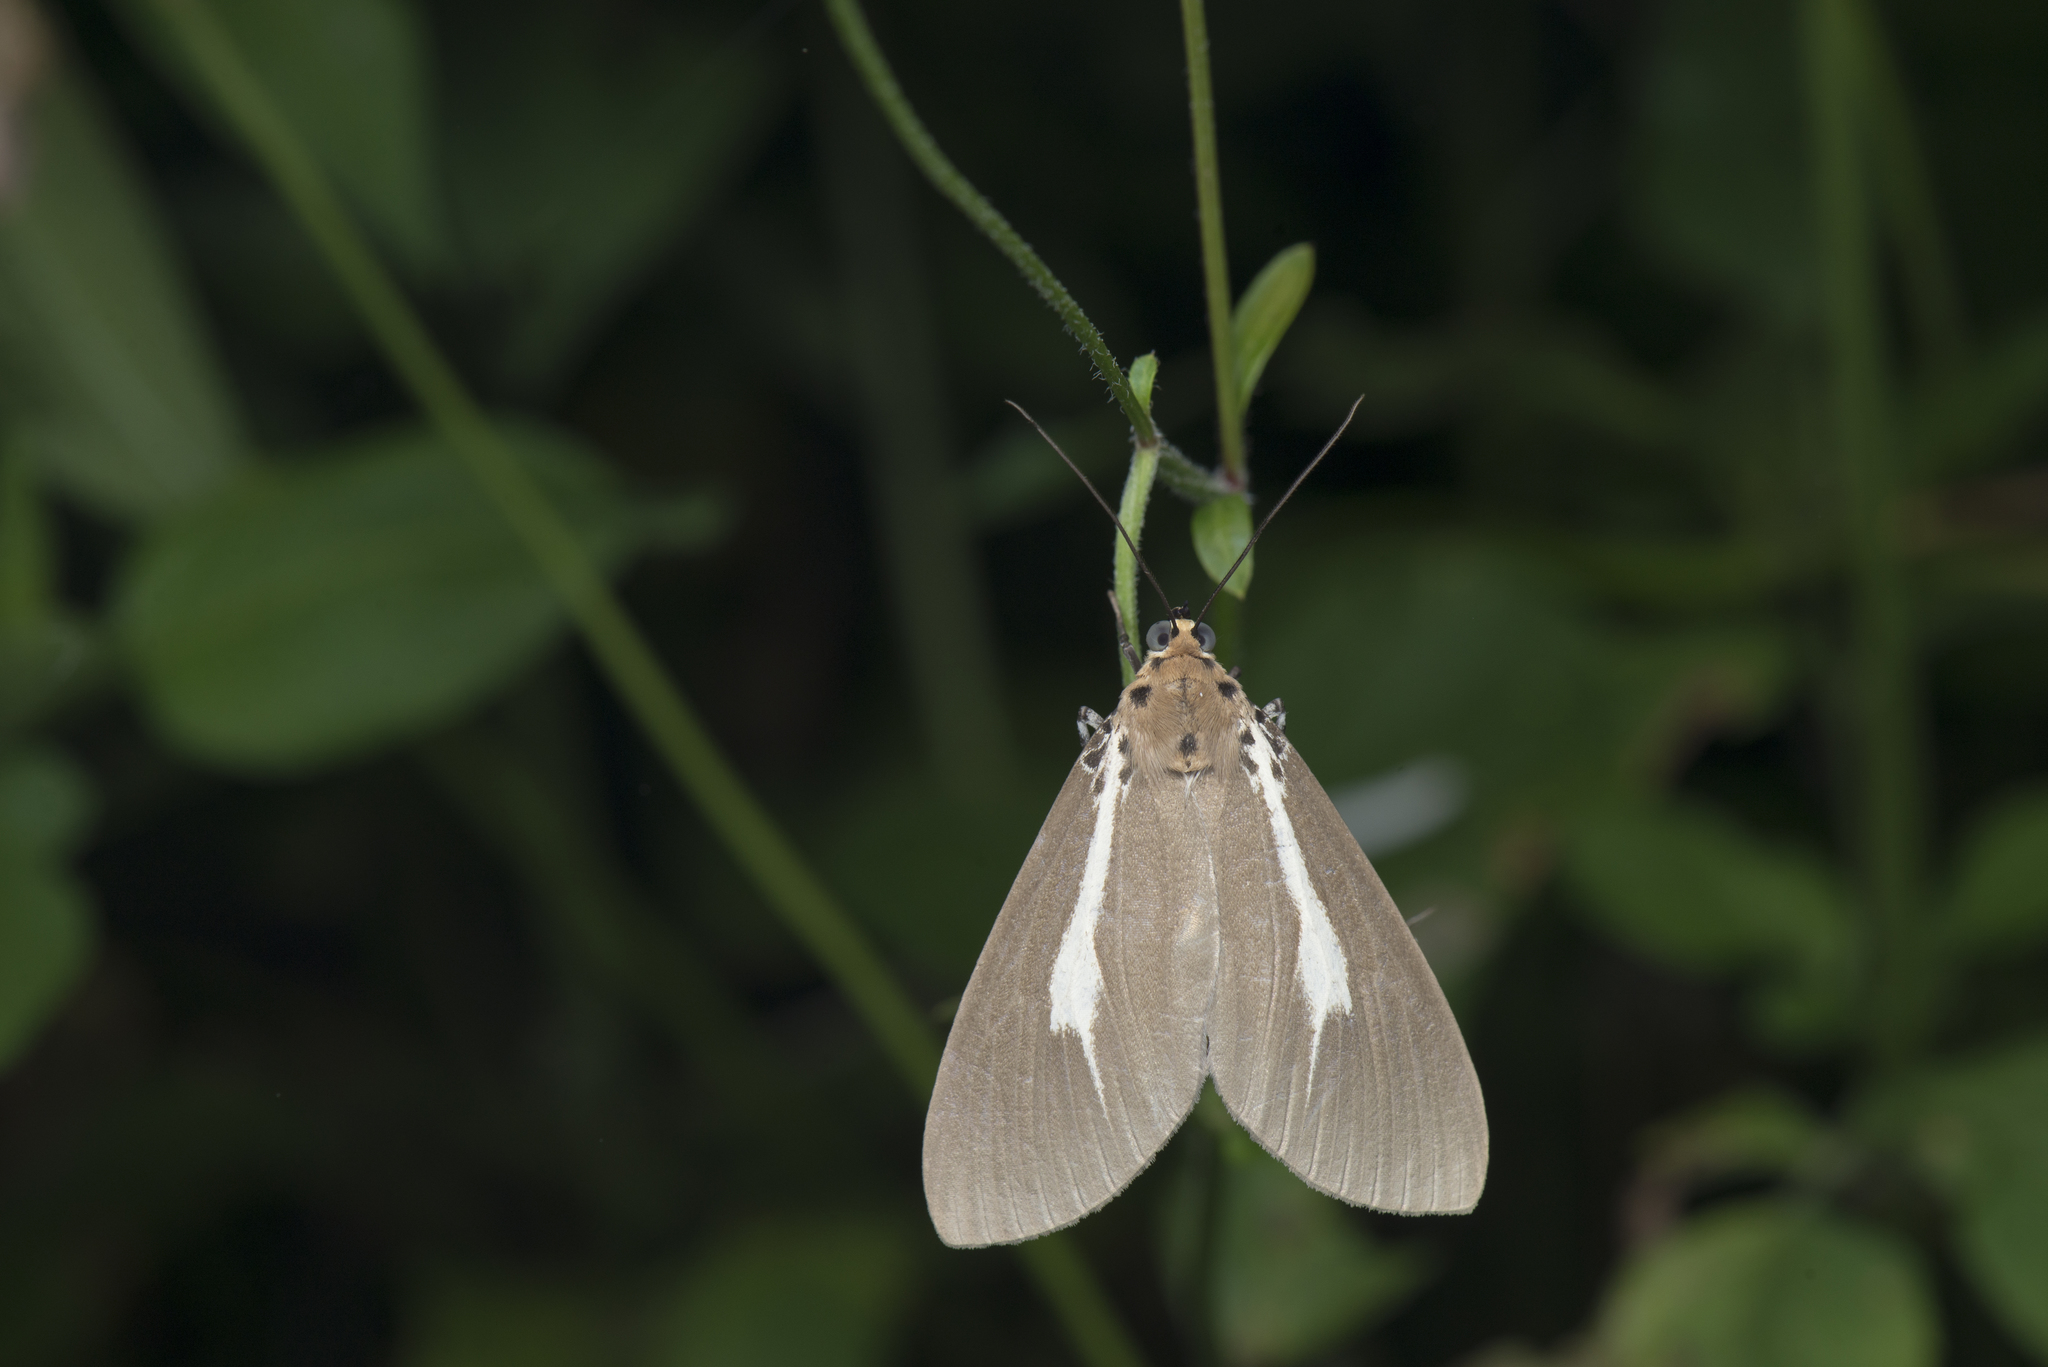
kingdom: Animalia
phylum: Arthropoda
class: Insecta
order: Lepidoptera
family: Erebidae
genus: Asota
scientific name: Asota heliconia
